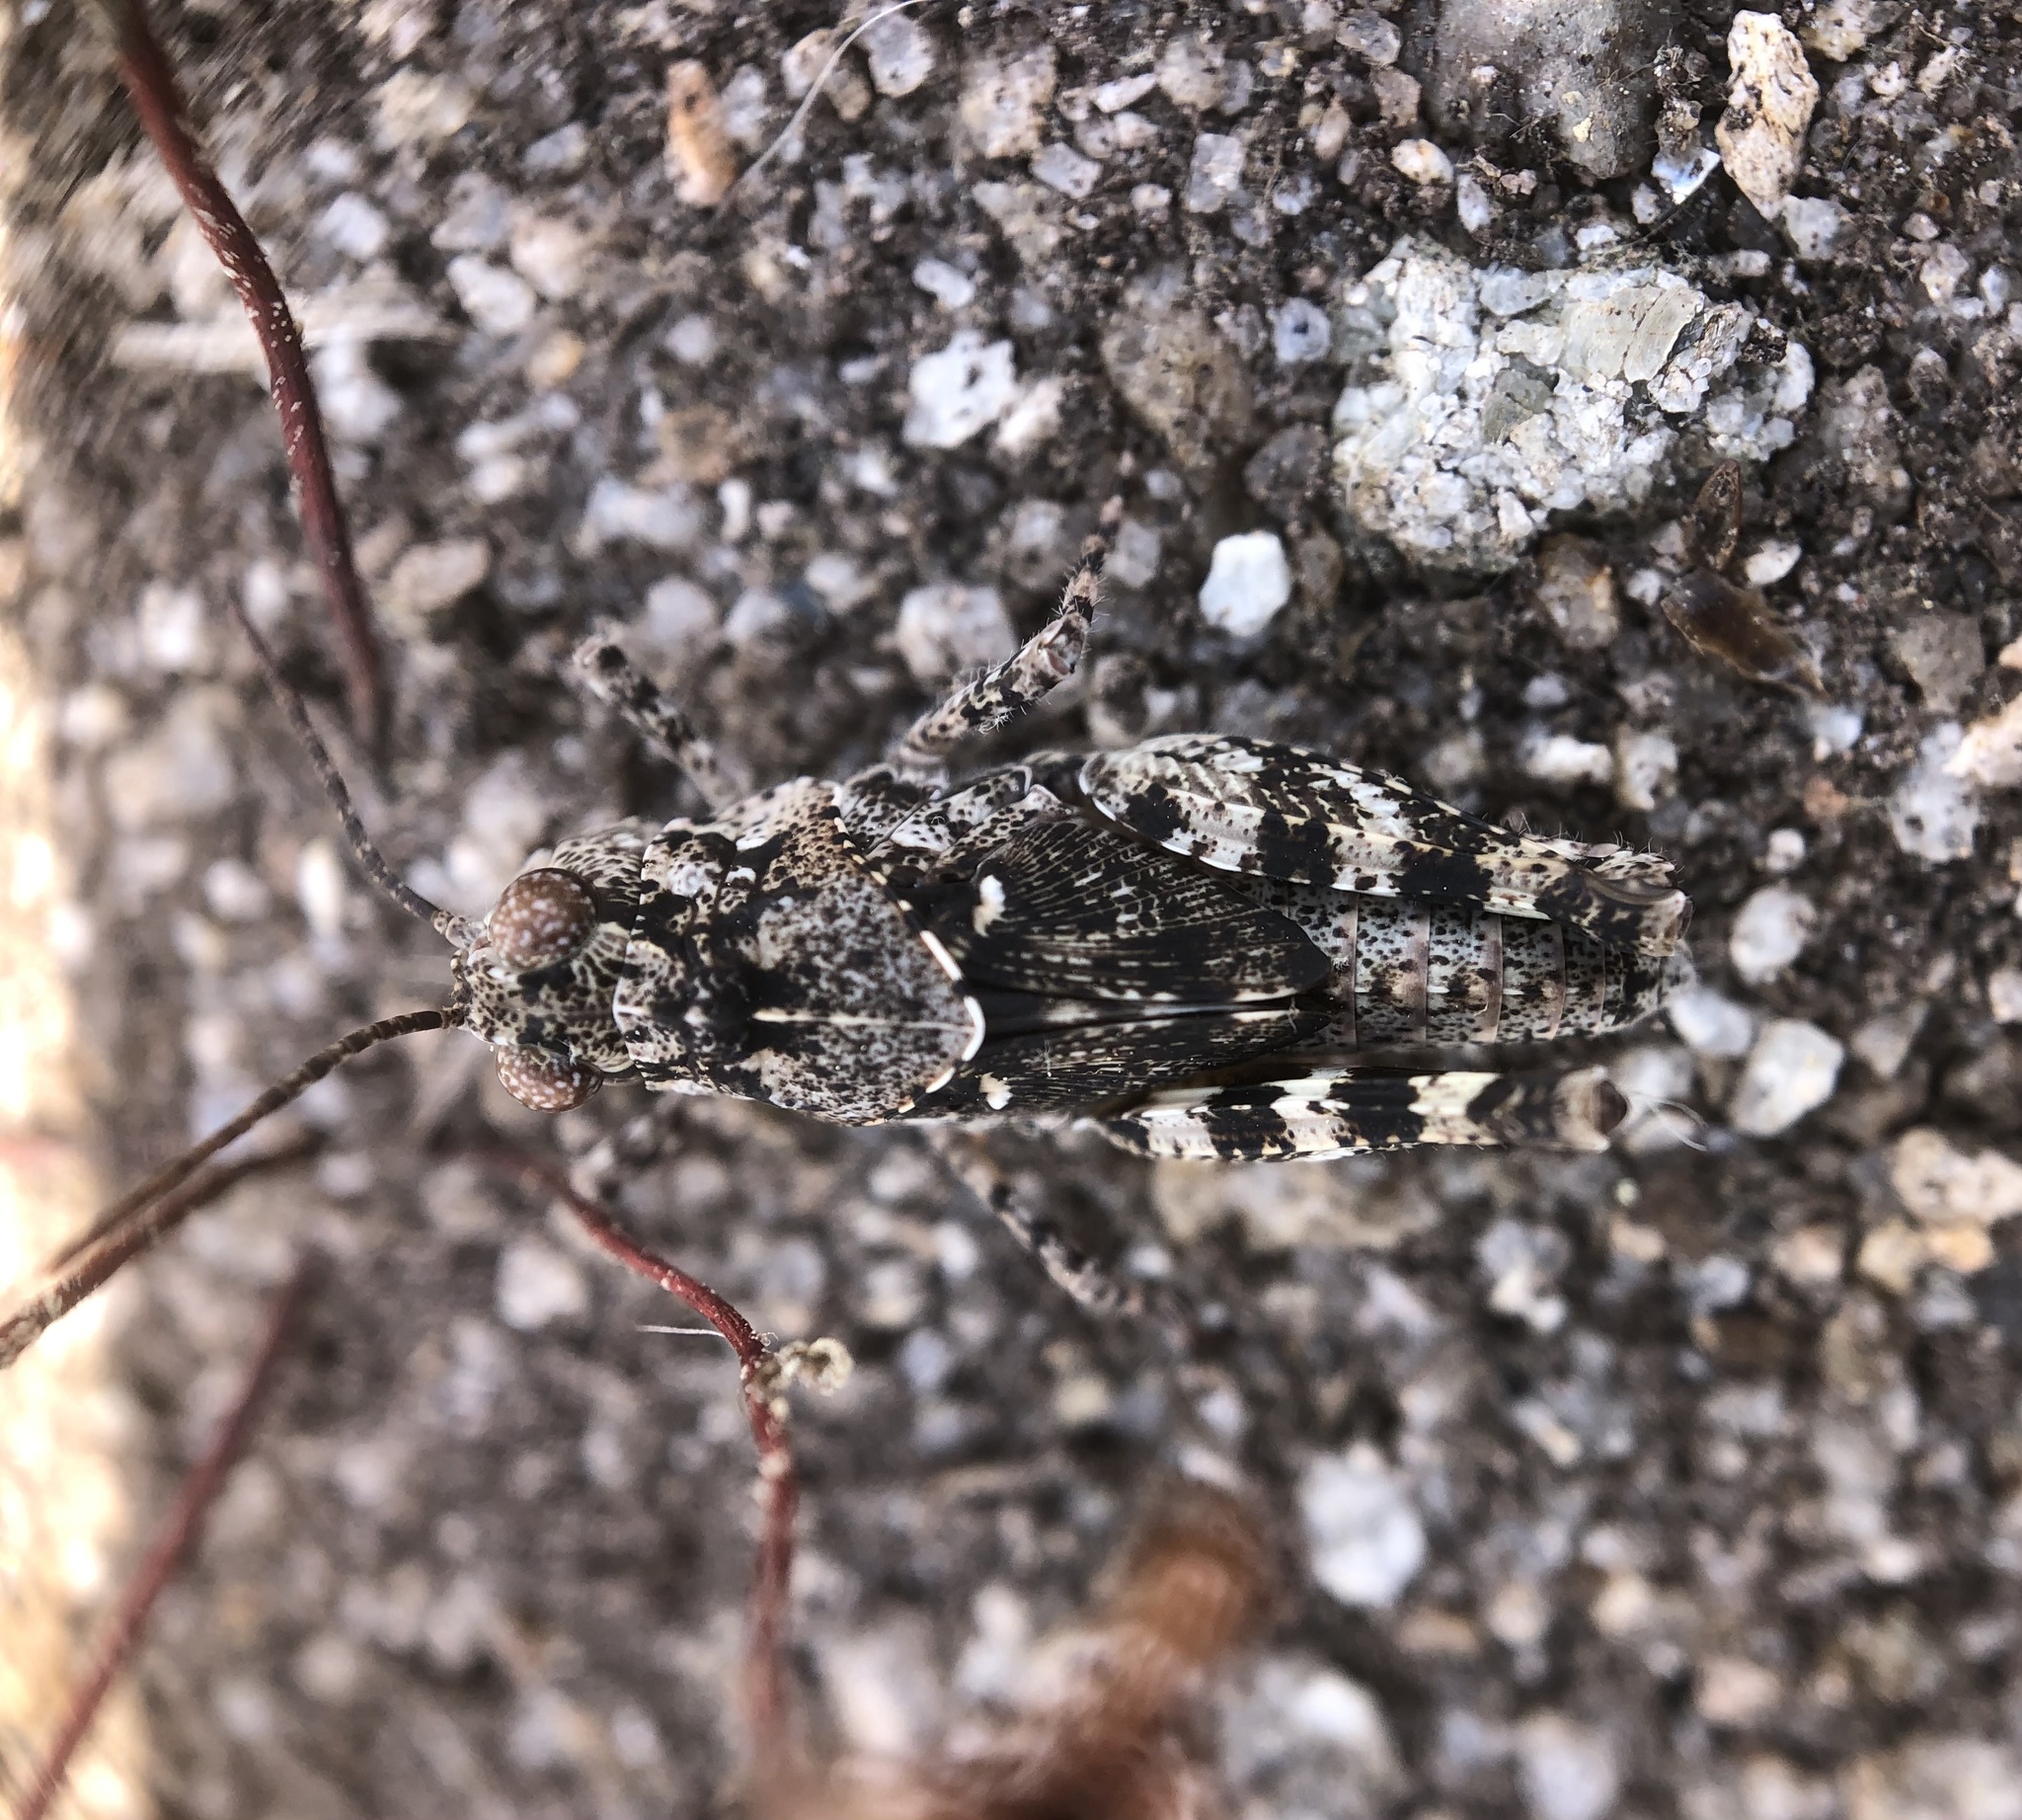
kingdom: Animalia
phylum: Arthropoda
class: Insecta
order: Orthoptera
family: Acrididae
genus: Trimerotropis
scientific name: Trimerotropis saxatilis
